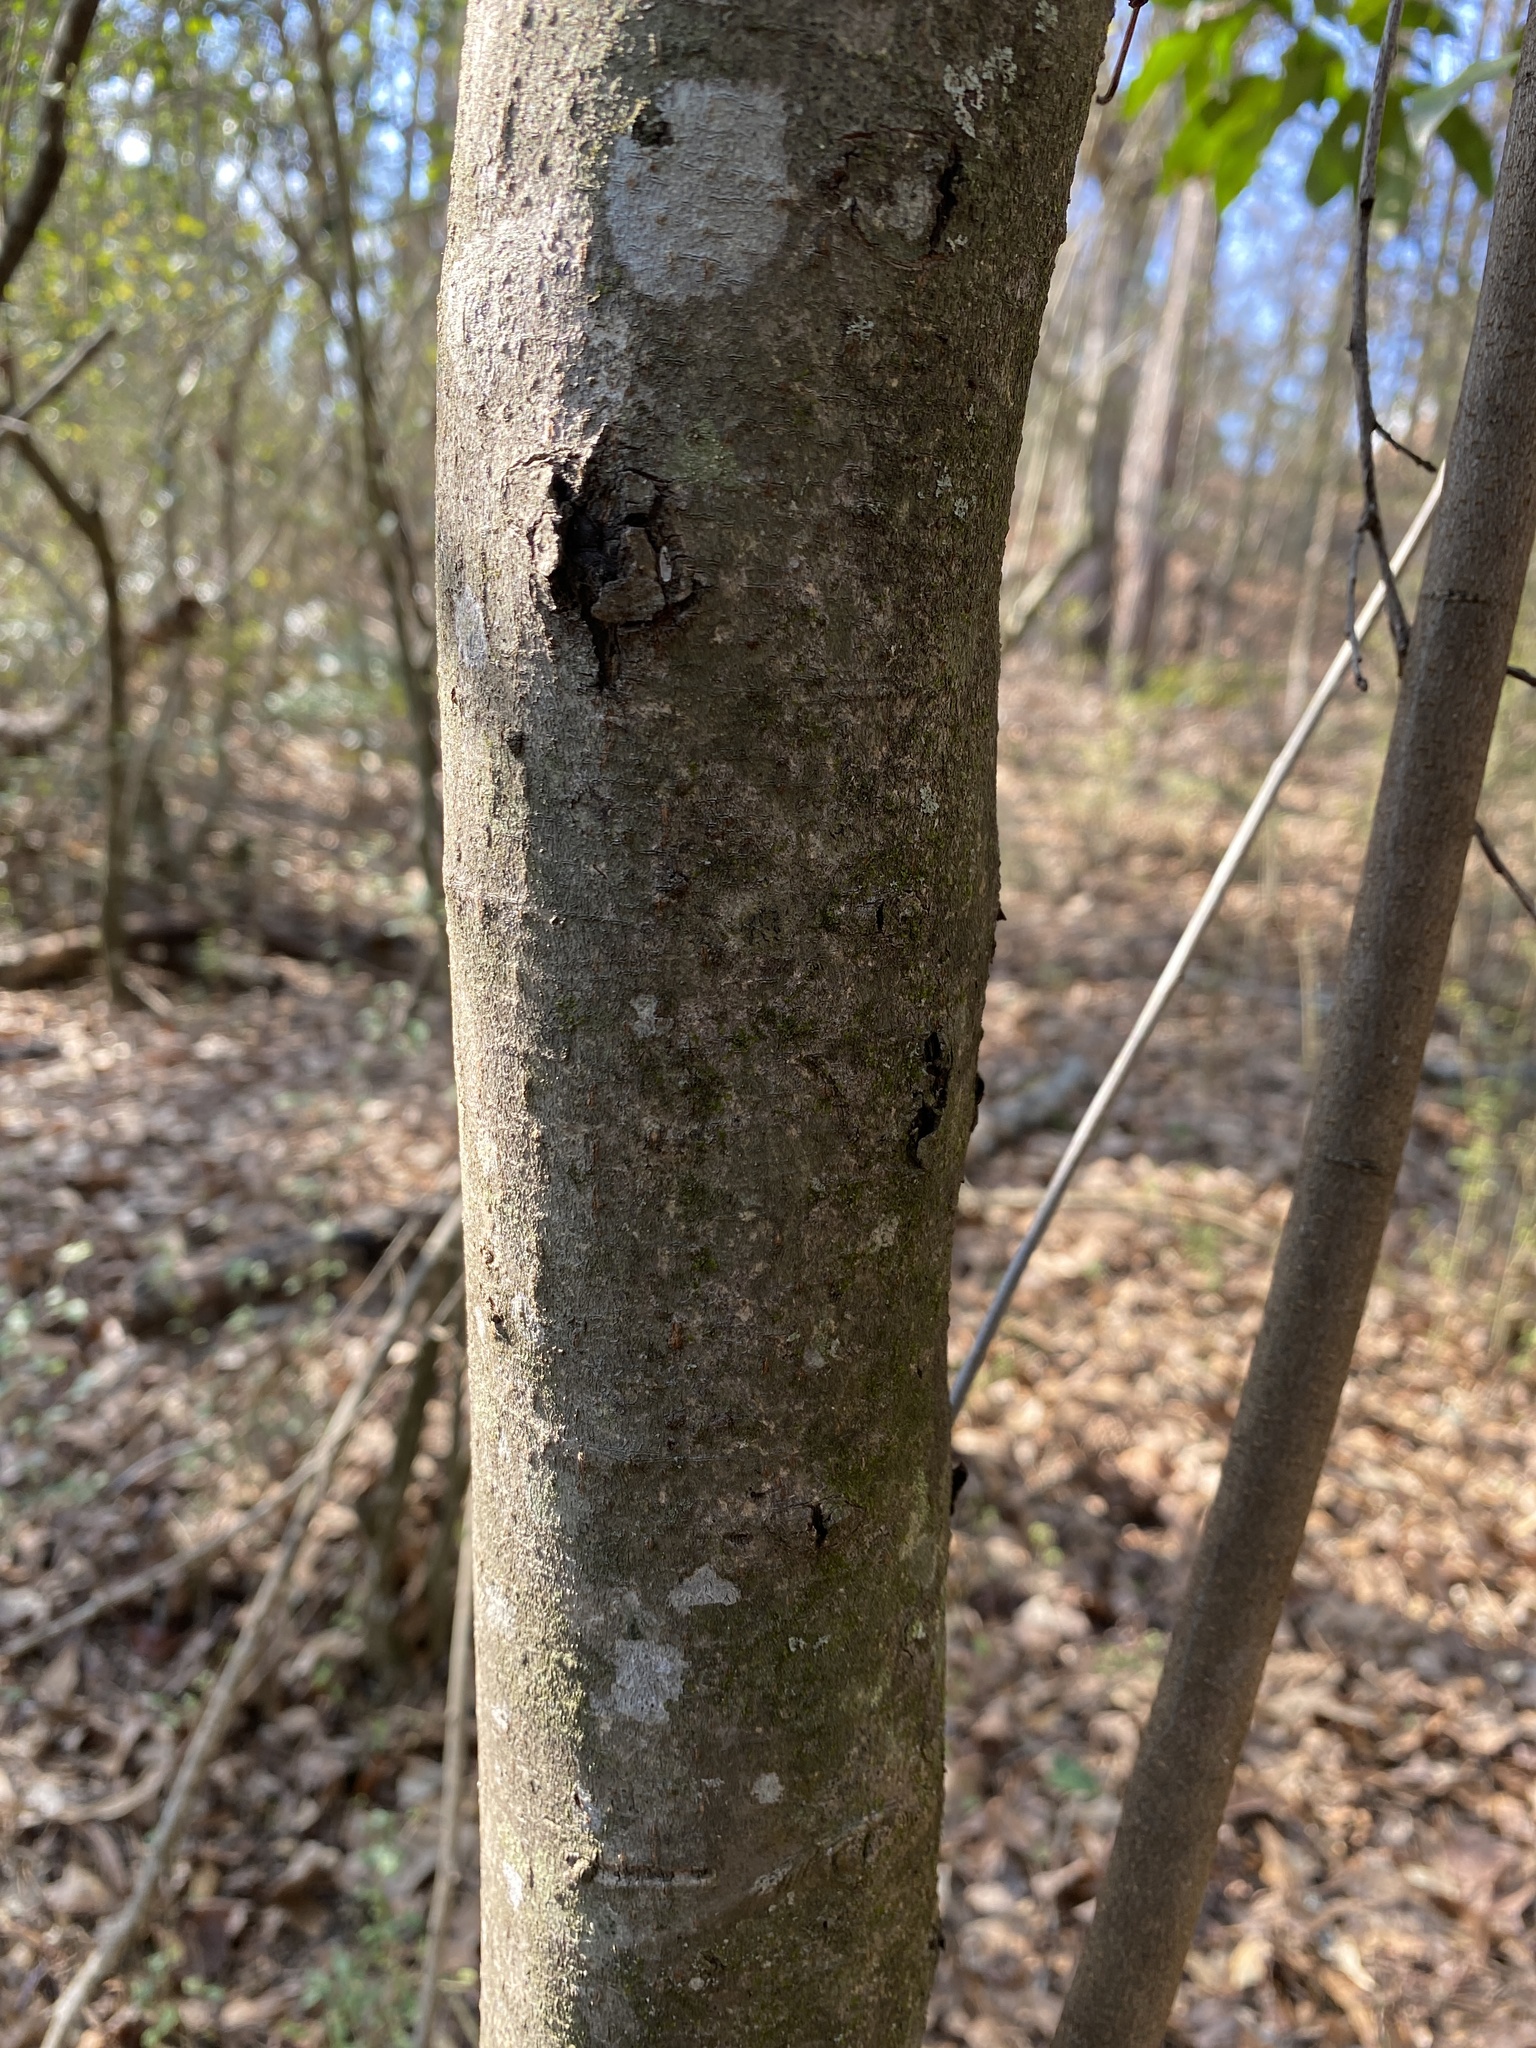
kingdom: Plantae
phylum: Tracheophyta
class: Magnoliopsida
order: Rosales
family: Rosaceae
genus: Prunus
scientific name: Prunus caroliniana
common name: Carolina laurel cherry
